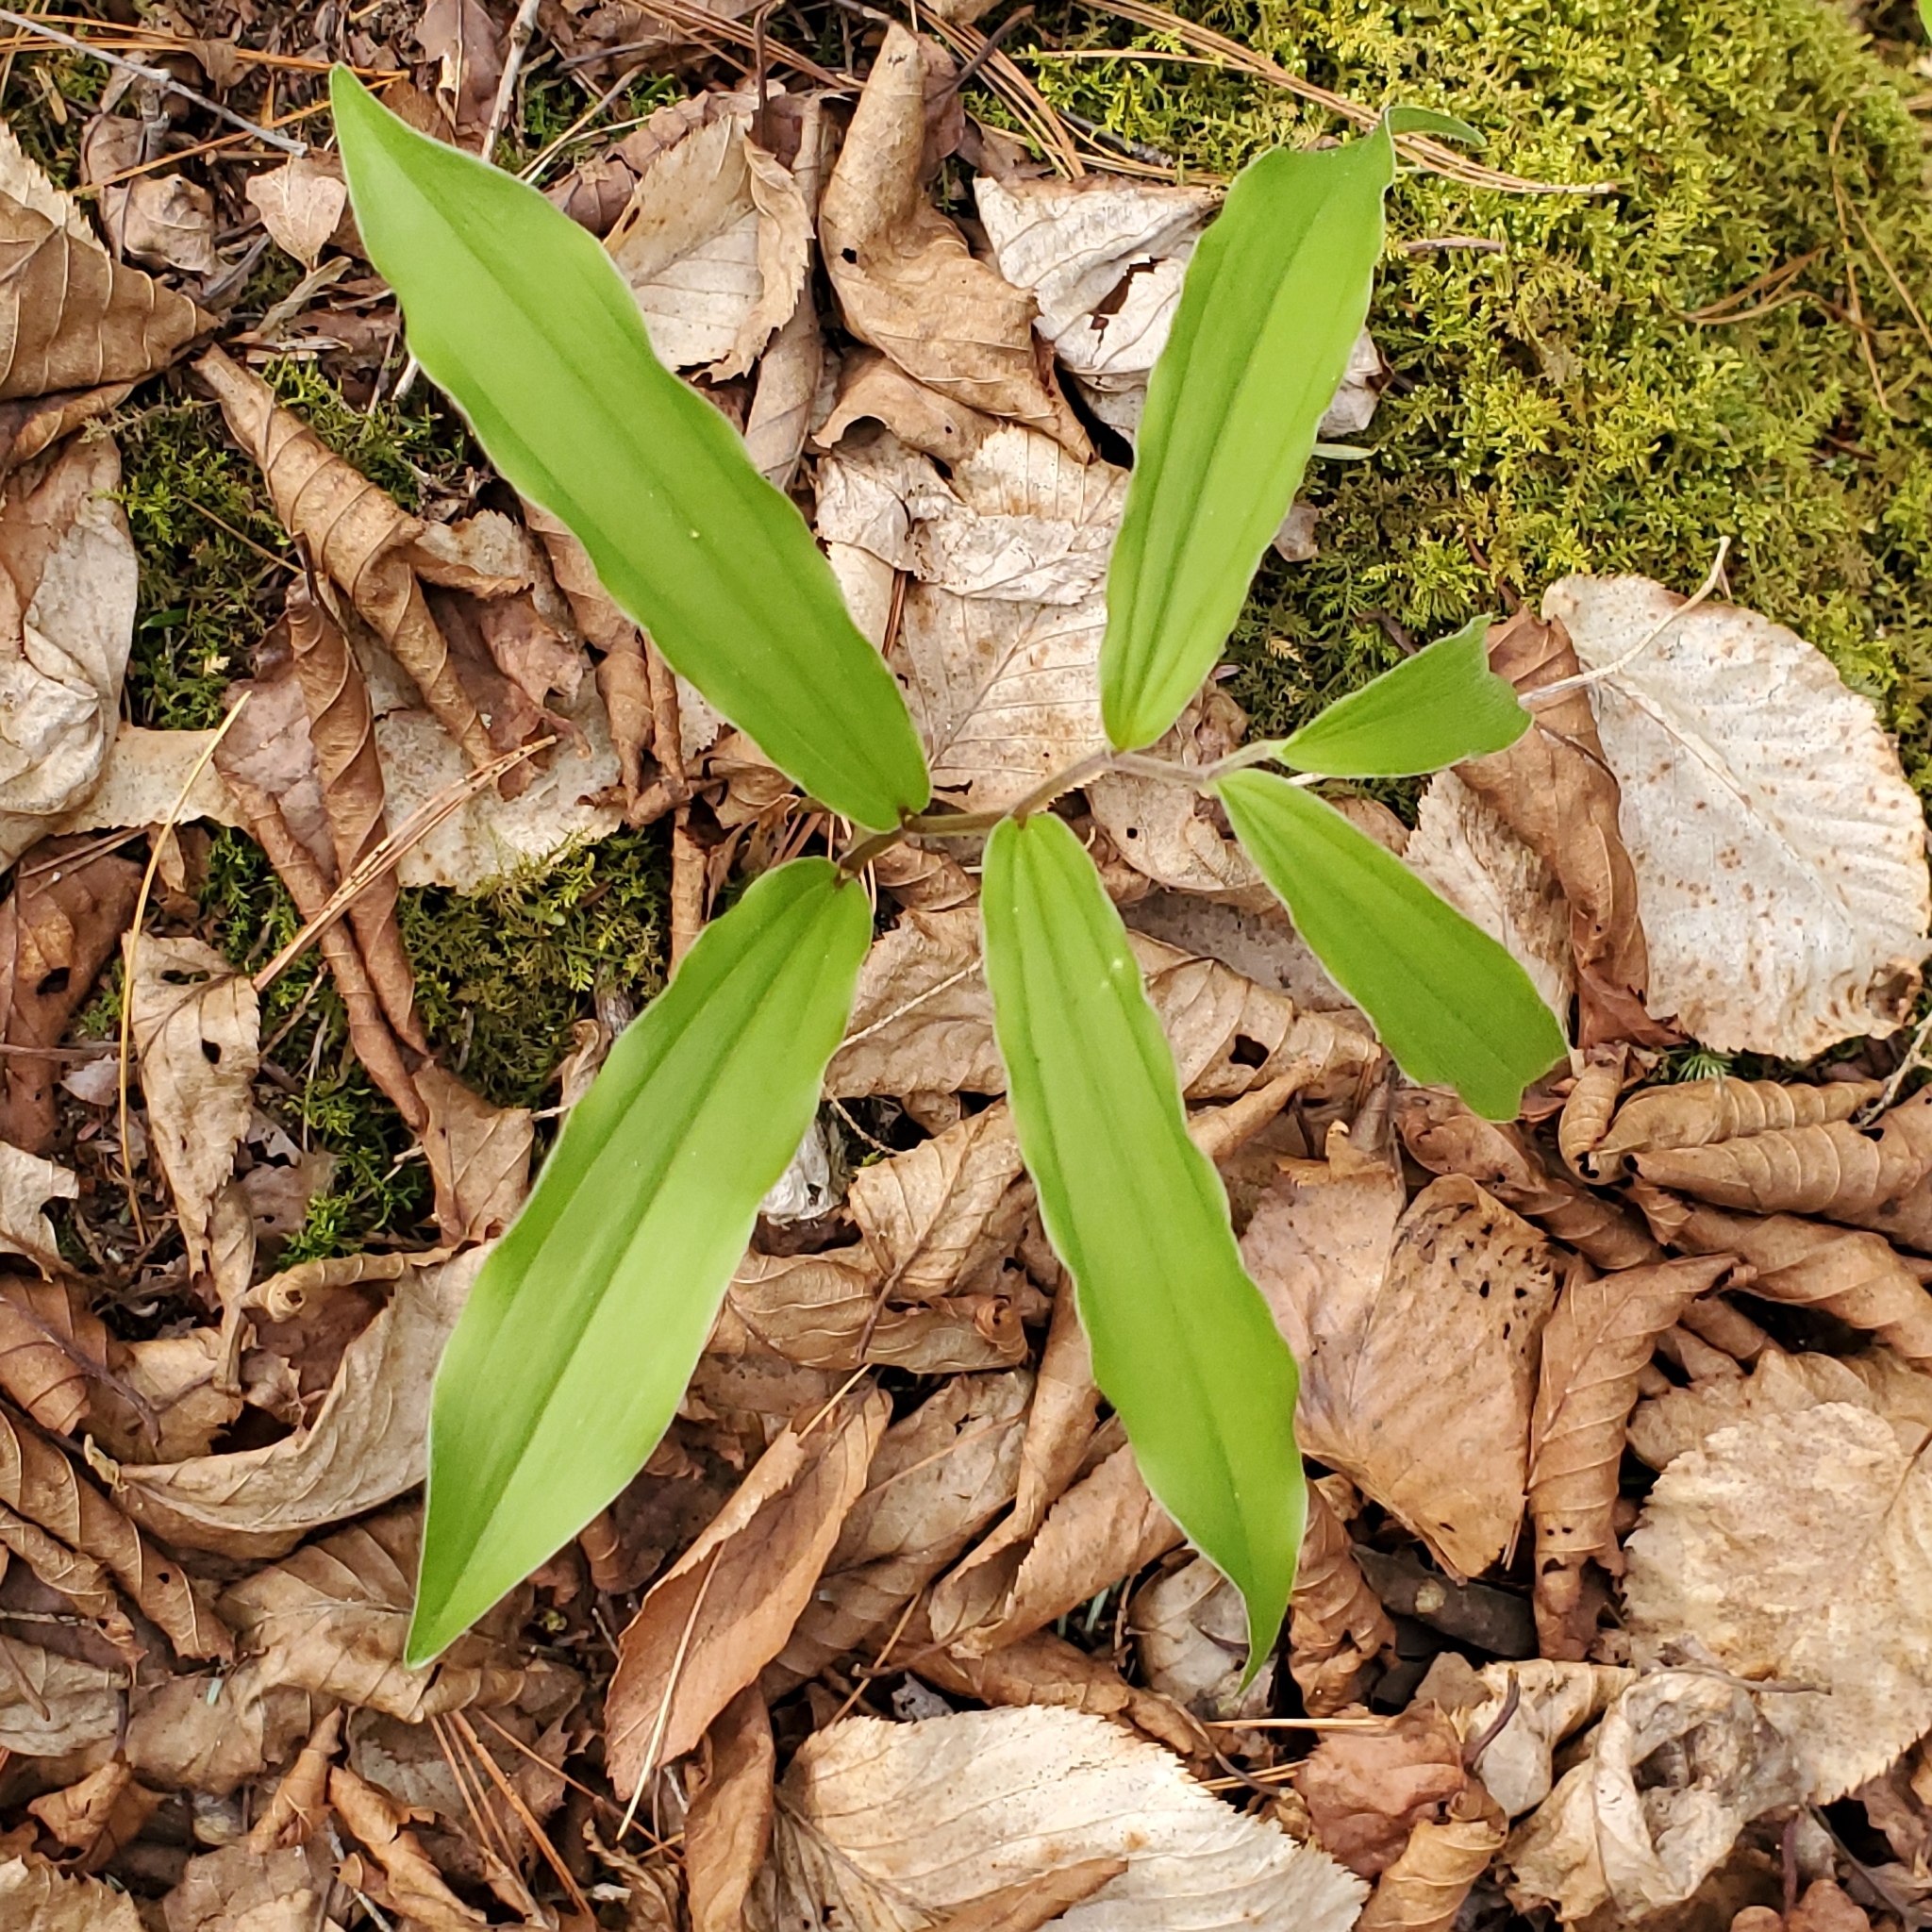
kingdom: Plantae
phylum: Tracheophyta
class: Liliopsida
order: Asparagales
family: Asparagaceae
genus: Maianthemum
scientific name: Maianthemum racemosum
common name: False spikenard
